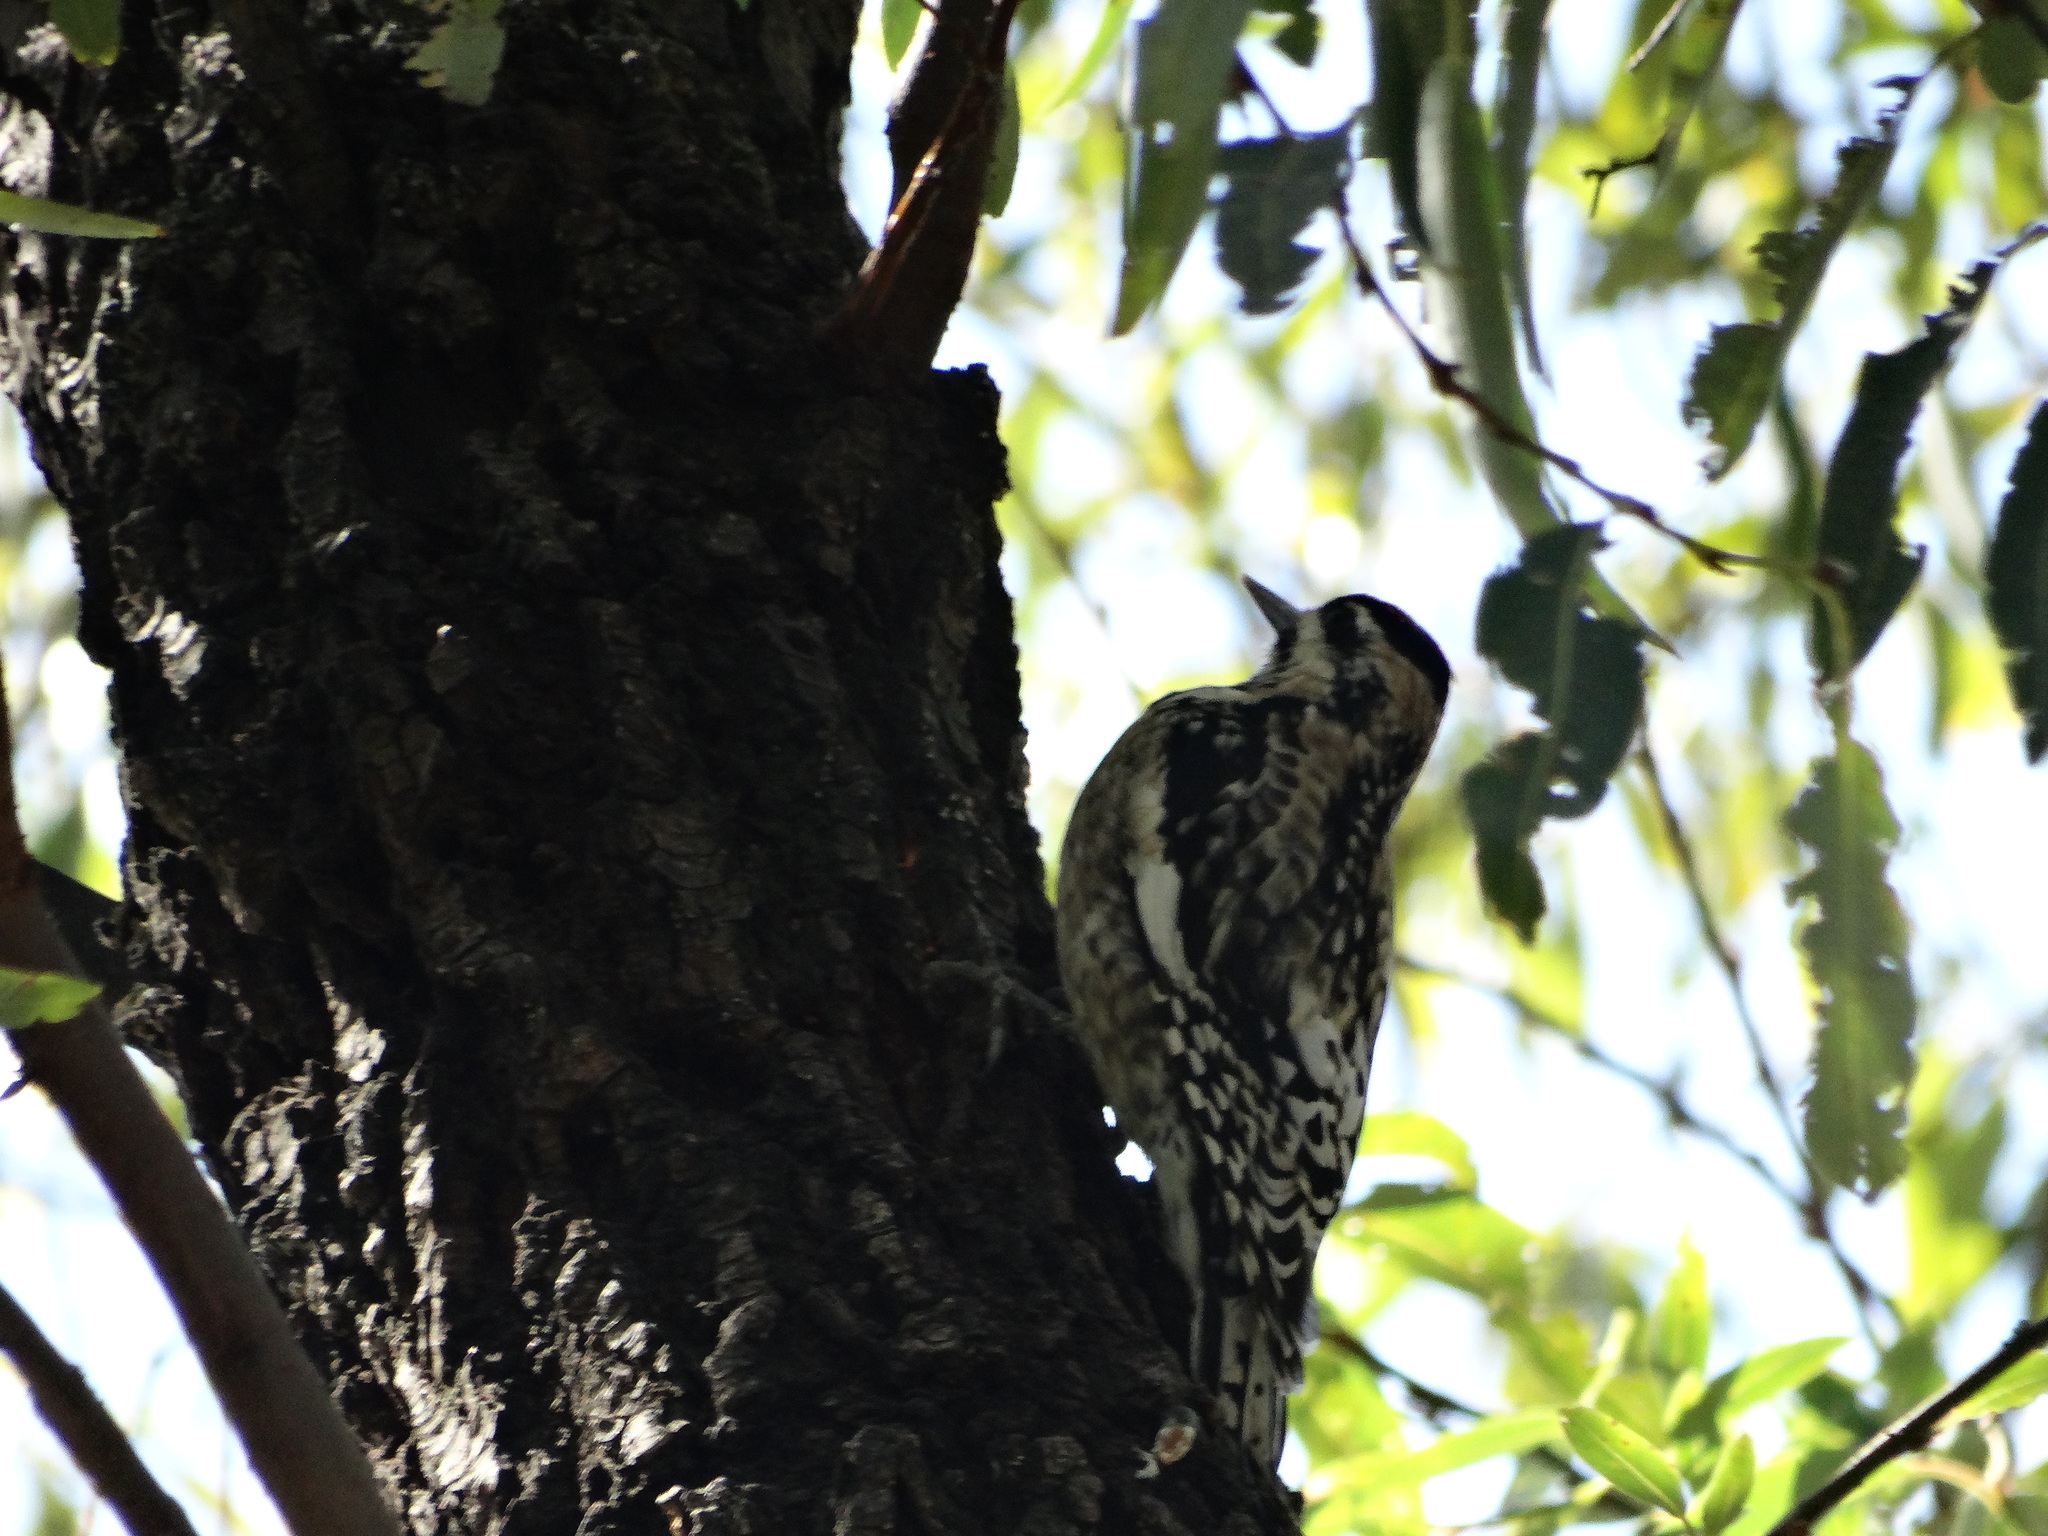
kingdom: Animalia
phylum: Chordata
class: Aves
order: Piciformes
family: Picidae
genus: Sphyrapicus
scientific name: Sphyrapicus varius
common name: Yellow-bellied sapsucker
